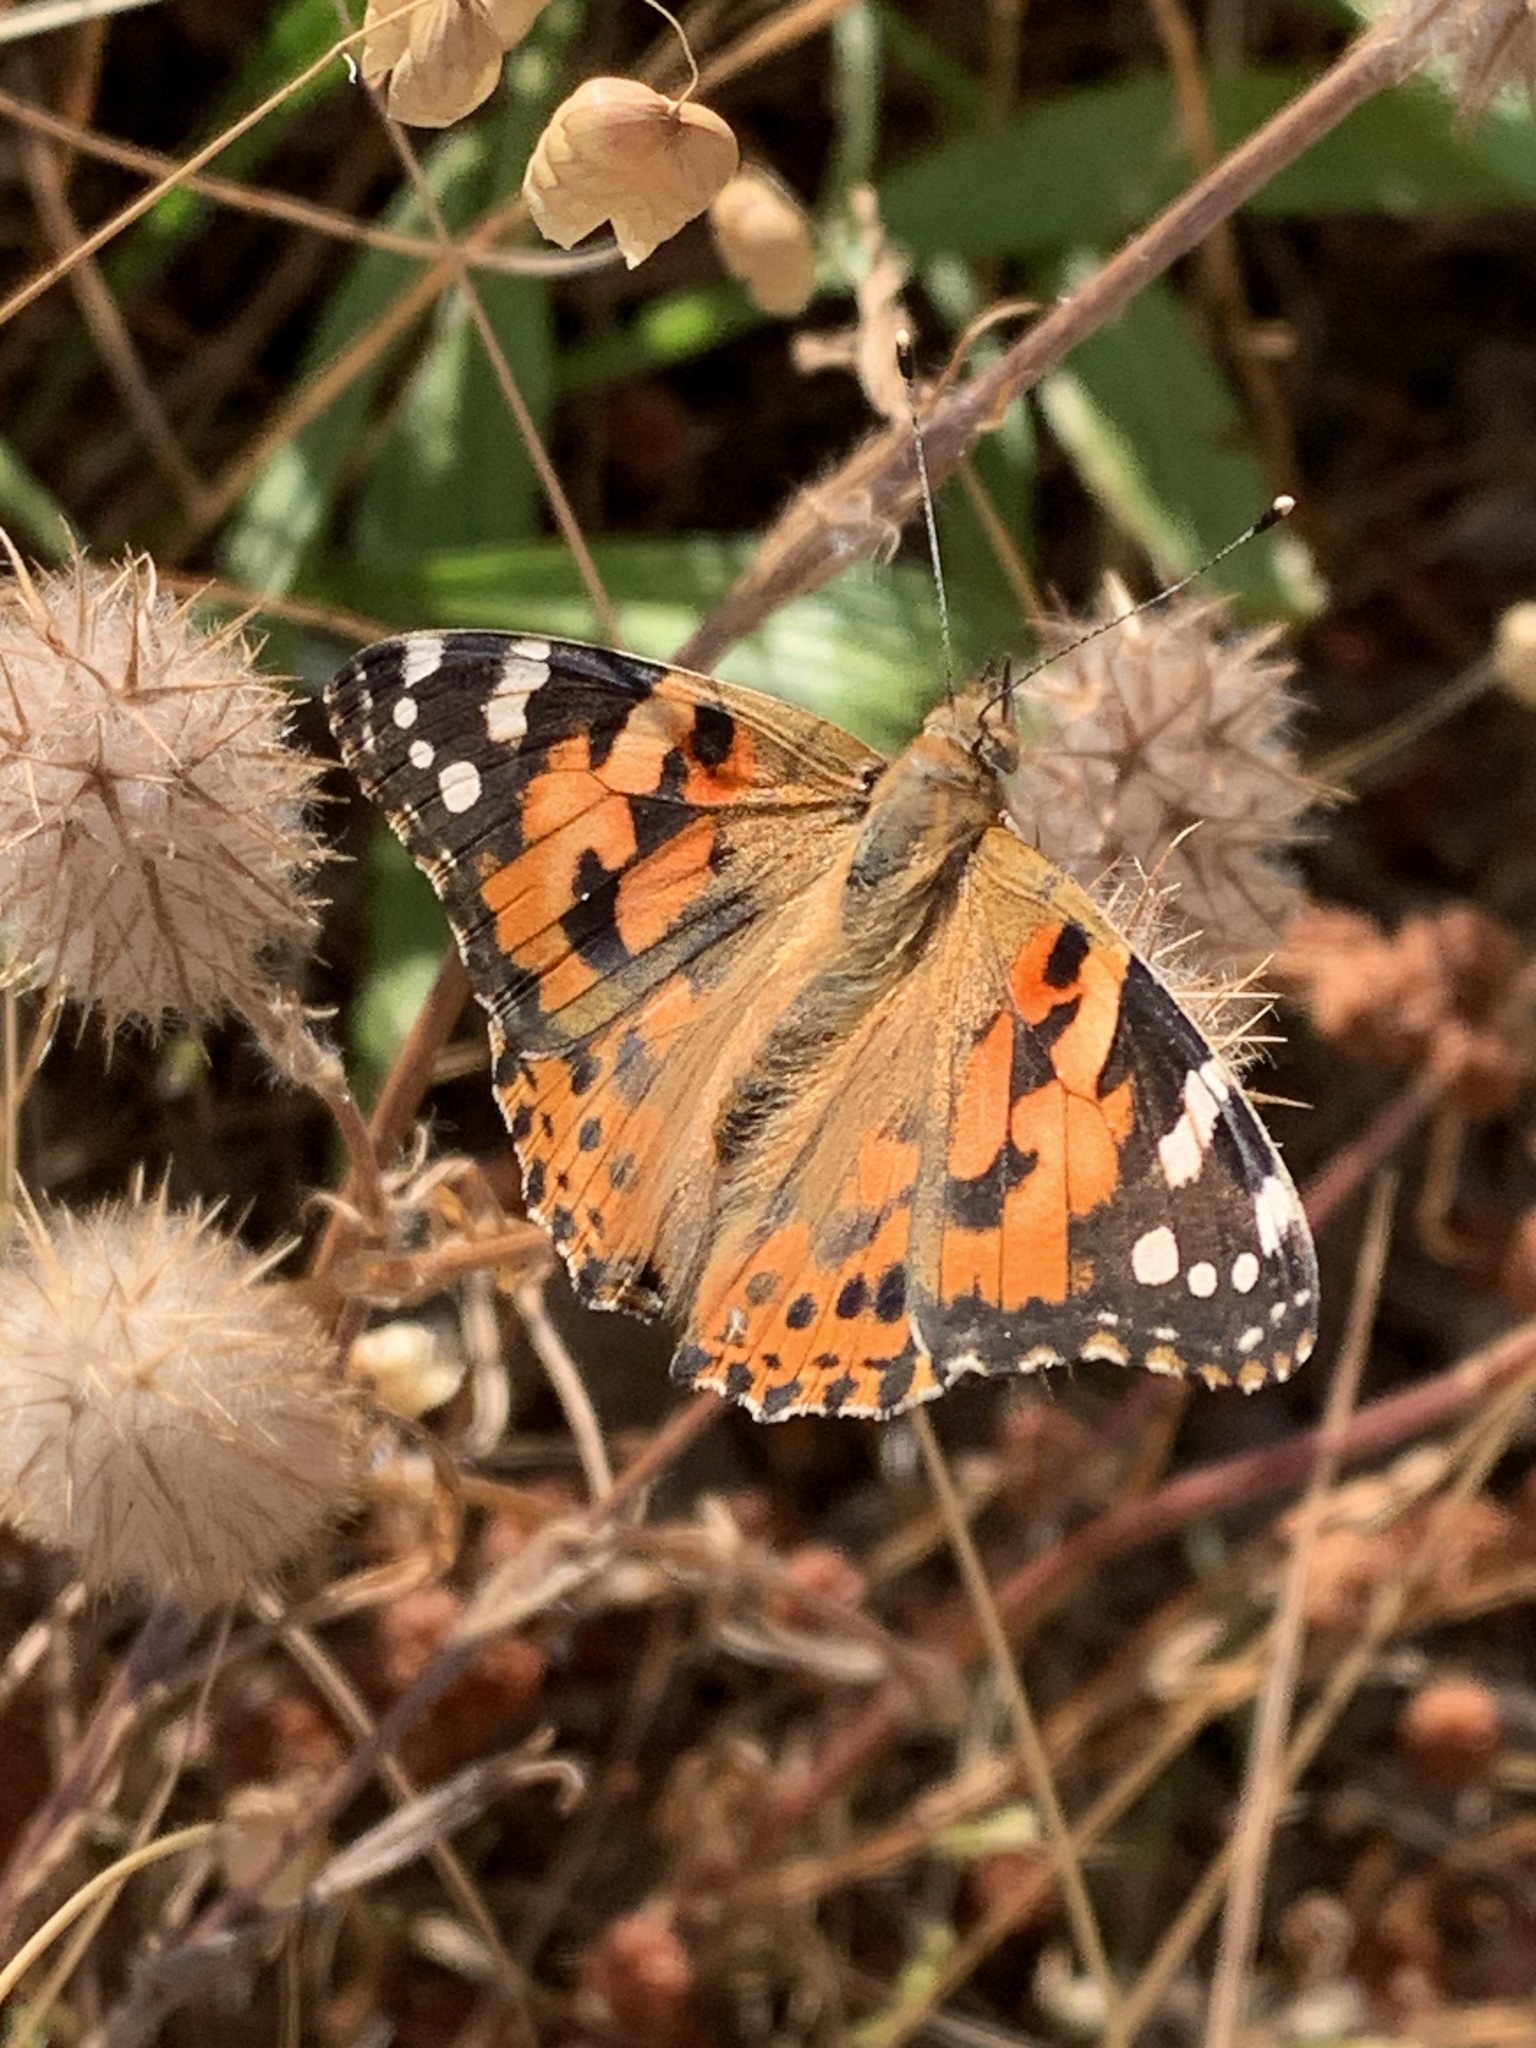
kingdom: Animalia
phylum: Arthropoda
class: Insecta
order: Lepidoptera
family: Nymphalidae
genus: Vanessa
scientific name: Vanessa cardui
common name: Painted lady
